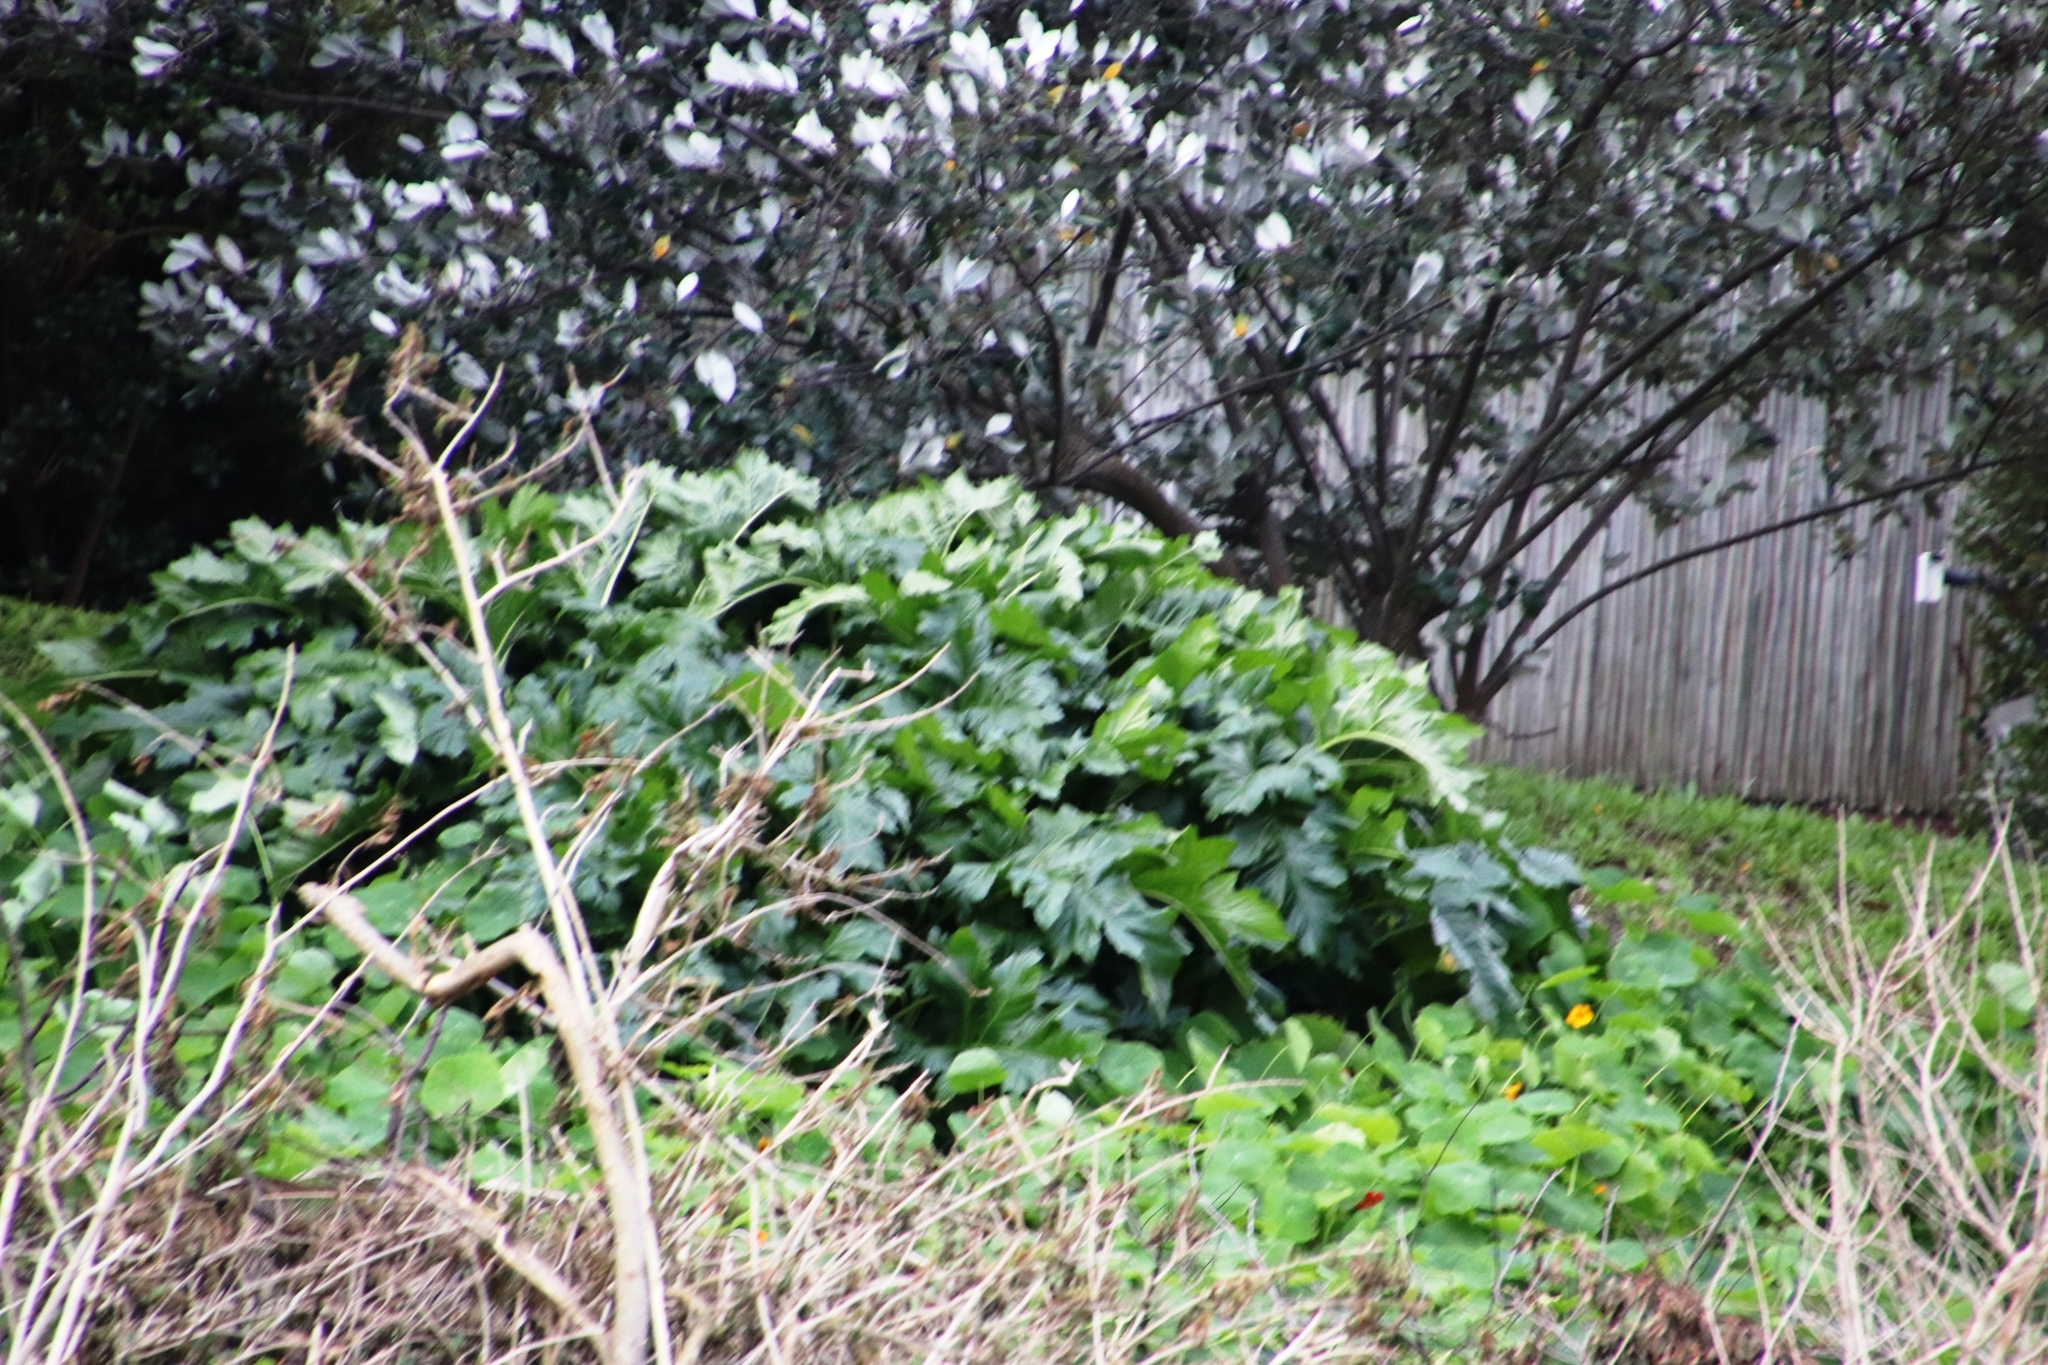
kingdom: Plantae
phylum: Tracheophyta
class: Magnoliopsida
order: Lamiales
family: Acanthaceae
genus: Acanthus
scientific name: Acanthus mollis
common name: Bear's-breech
